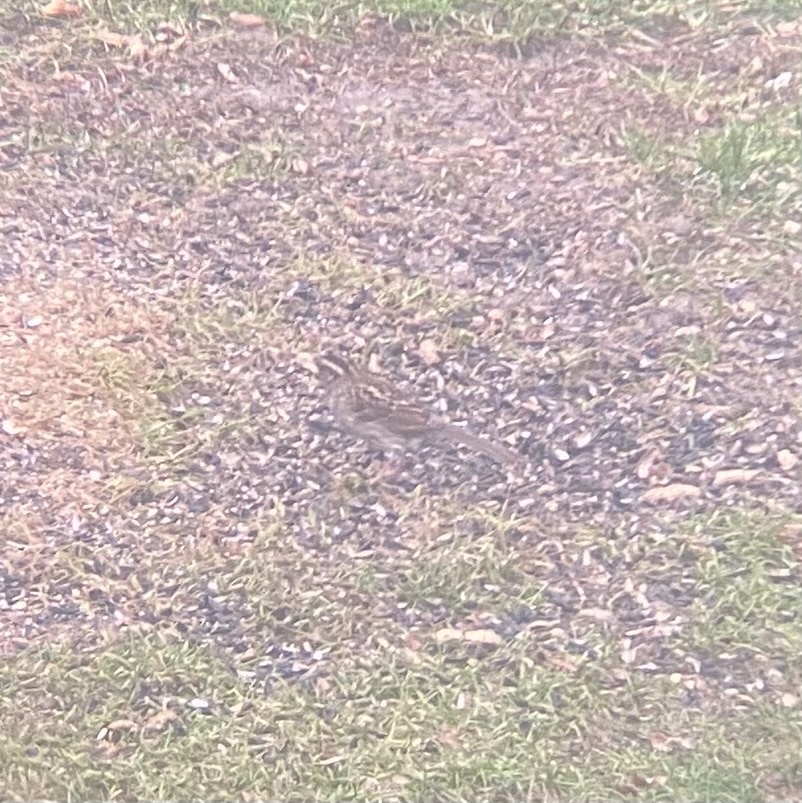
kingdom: Animalia
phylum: Chordata
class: Aves
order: Passeriformes
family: Passerellidae
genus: Zonotrichia
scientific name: Zonotrichia albicollis
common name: White-throated sparrow
